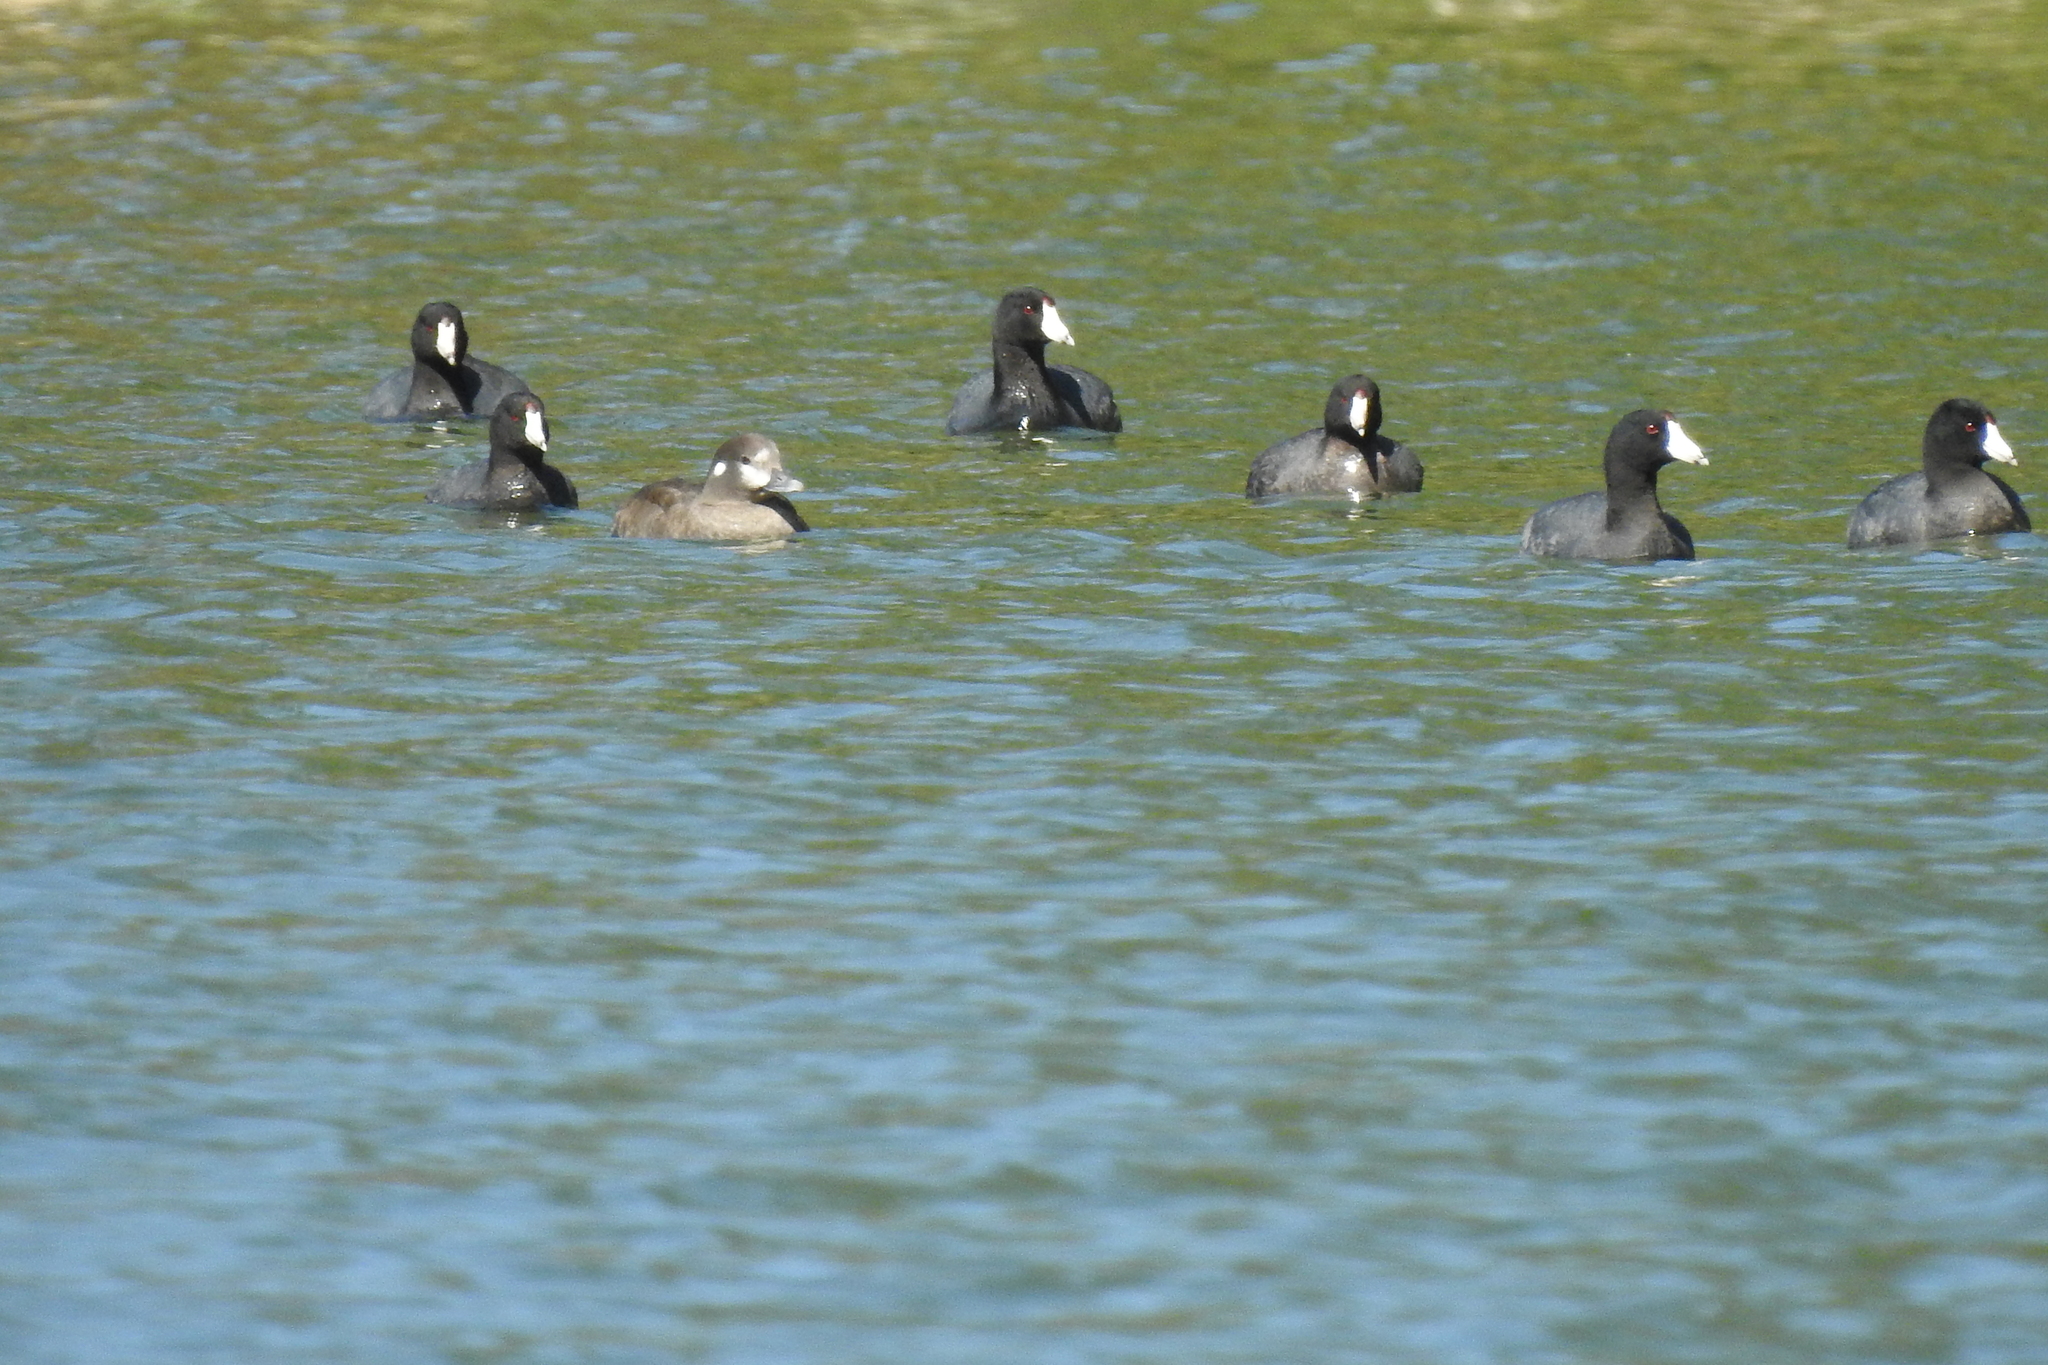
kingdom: Animalia
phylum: Chordata
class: Aves
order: Gruiformes
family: Rallidae
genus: Fulica
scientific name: Fulica americana
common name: American coot
